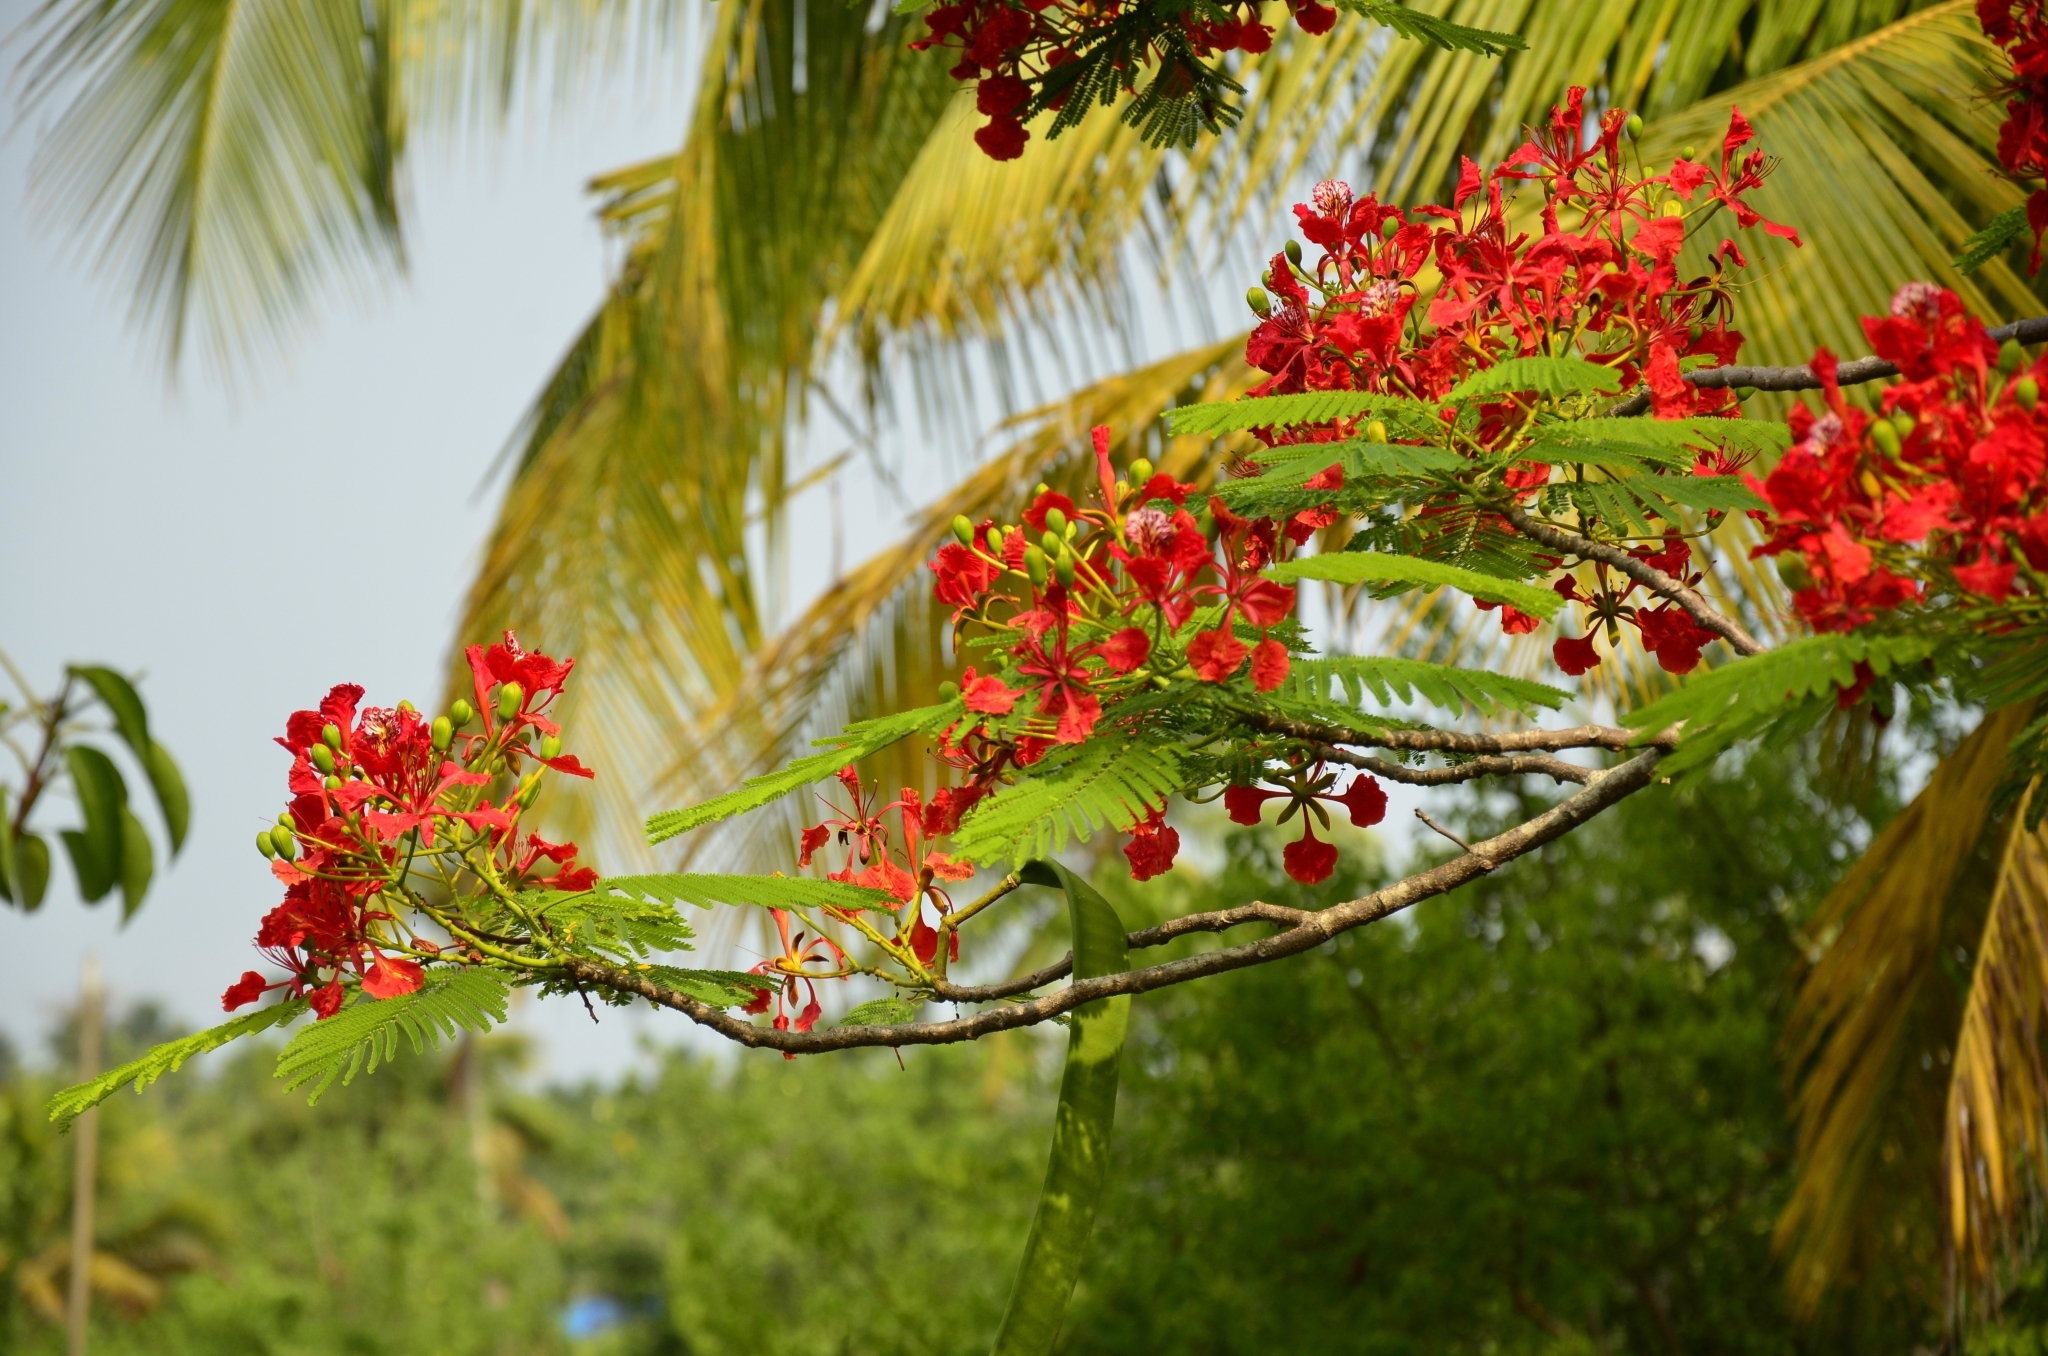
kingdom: Plantae
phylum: Tracheophyta
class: Magnoliopsida
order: Fabales
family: Fabaceae
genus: Delonix
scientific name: Delonix regia
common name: Royal poinciana
